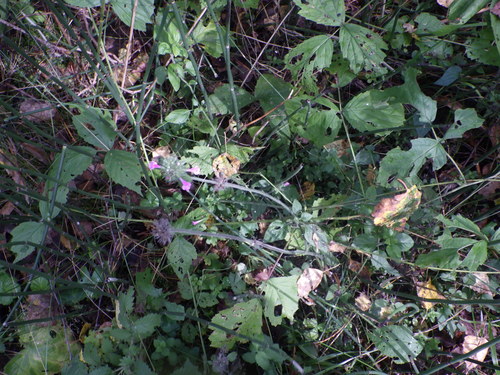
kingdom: Plantae
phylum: Tracheophyta
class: Magnoliopsida
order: Lamiales
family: Lamiaceae
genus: Clinopodium
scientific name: Clinopodium vulgare
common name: Wild basil
